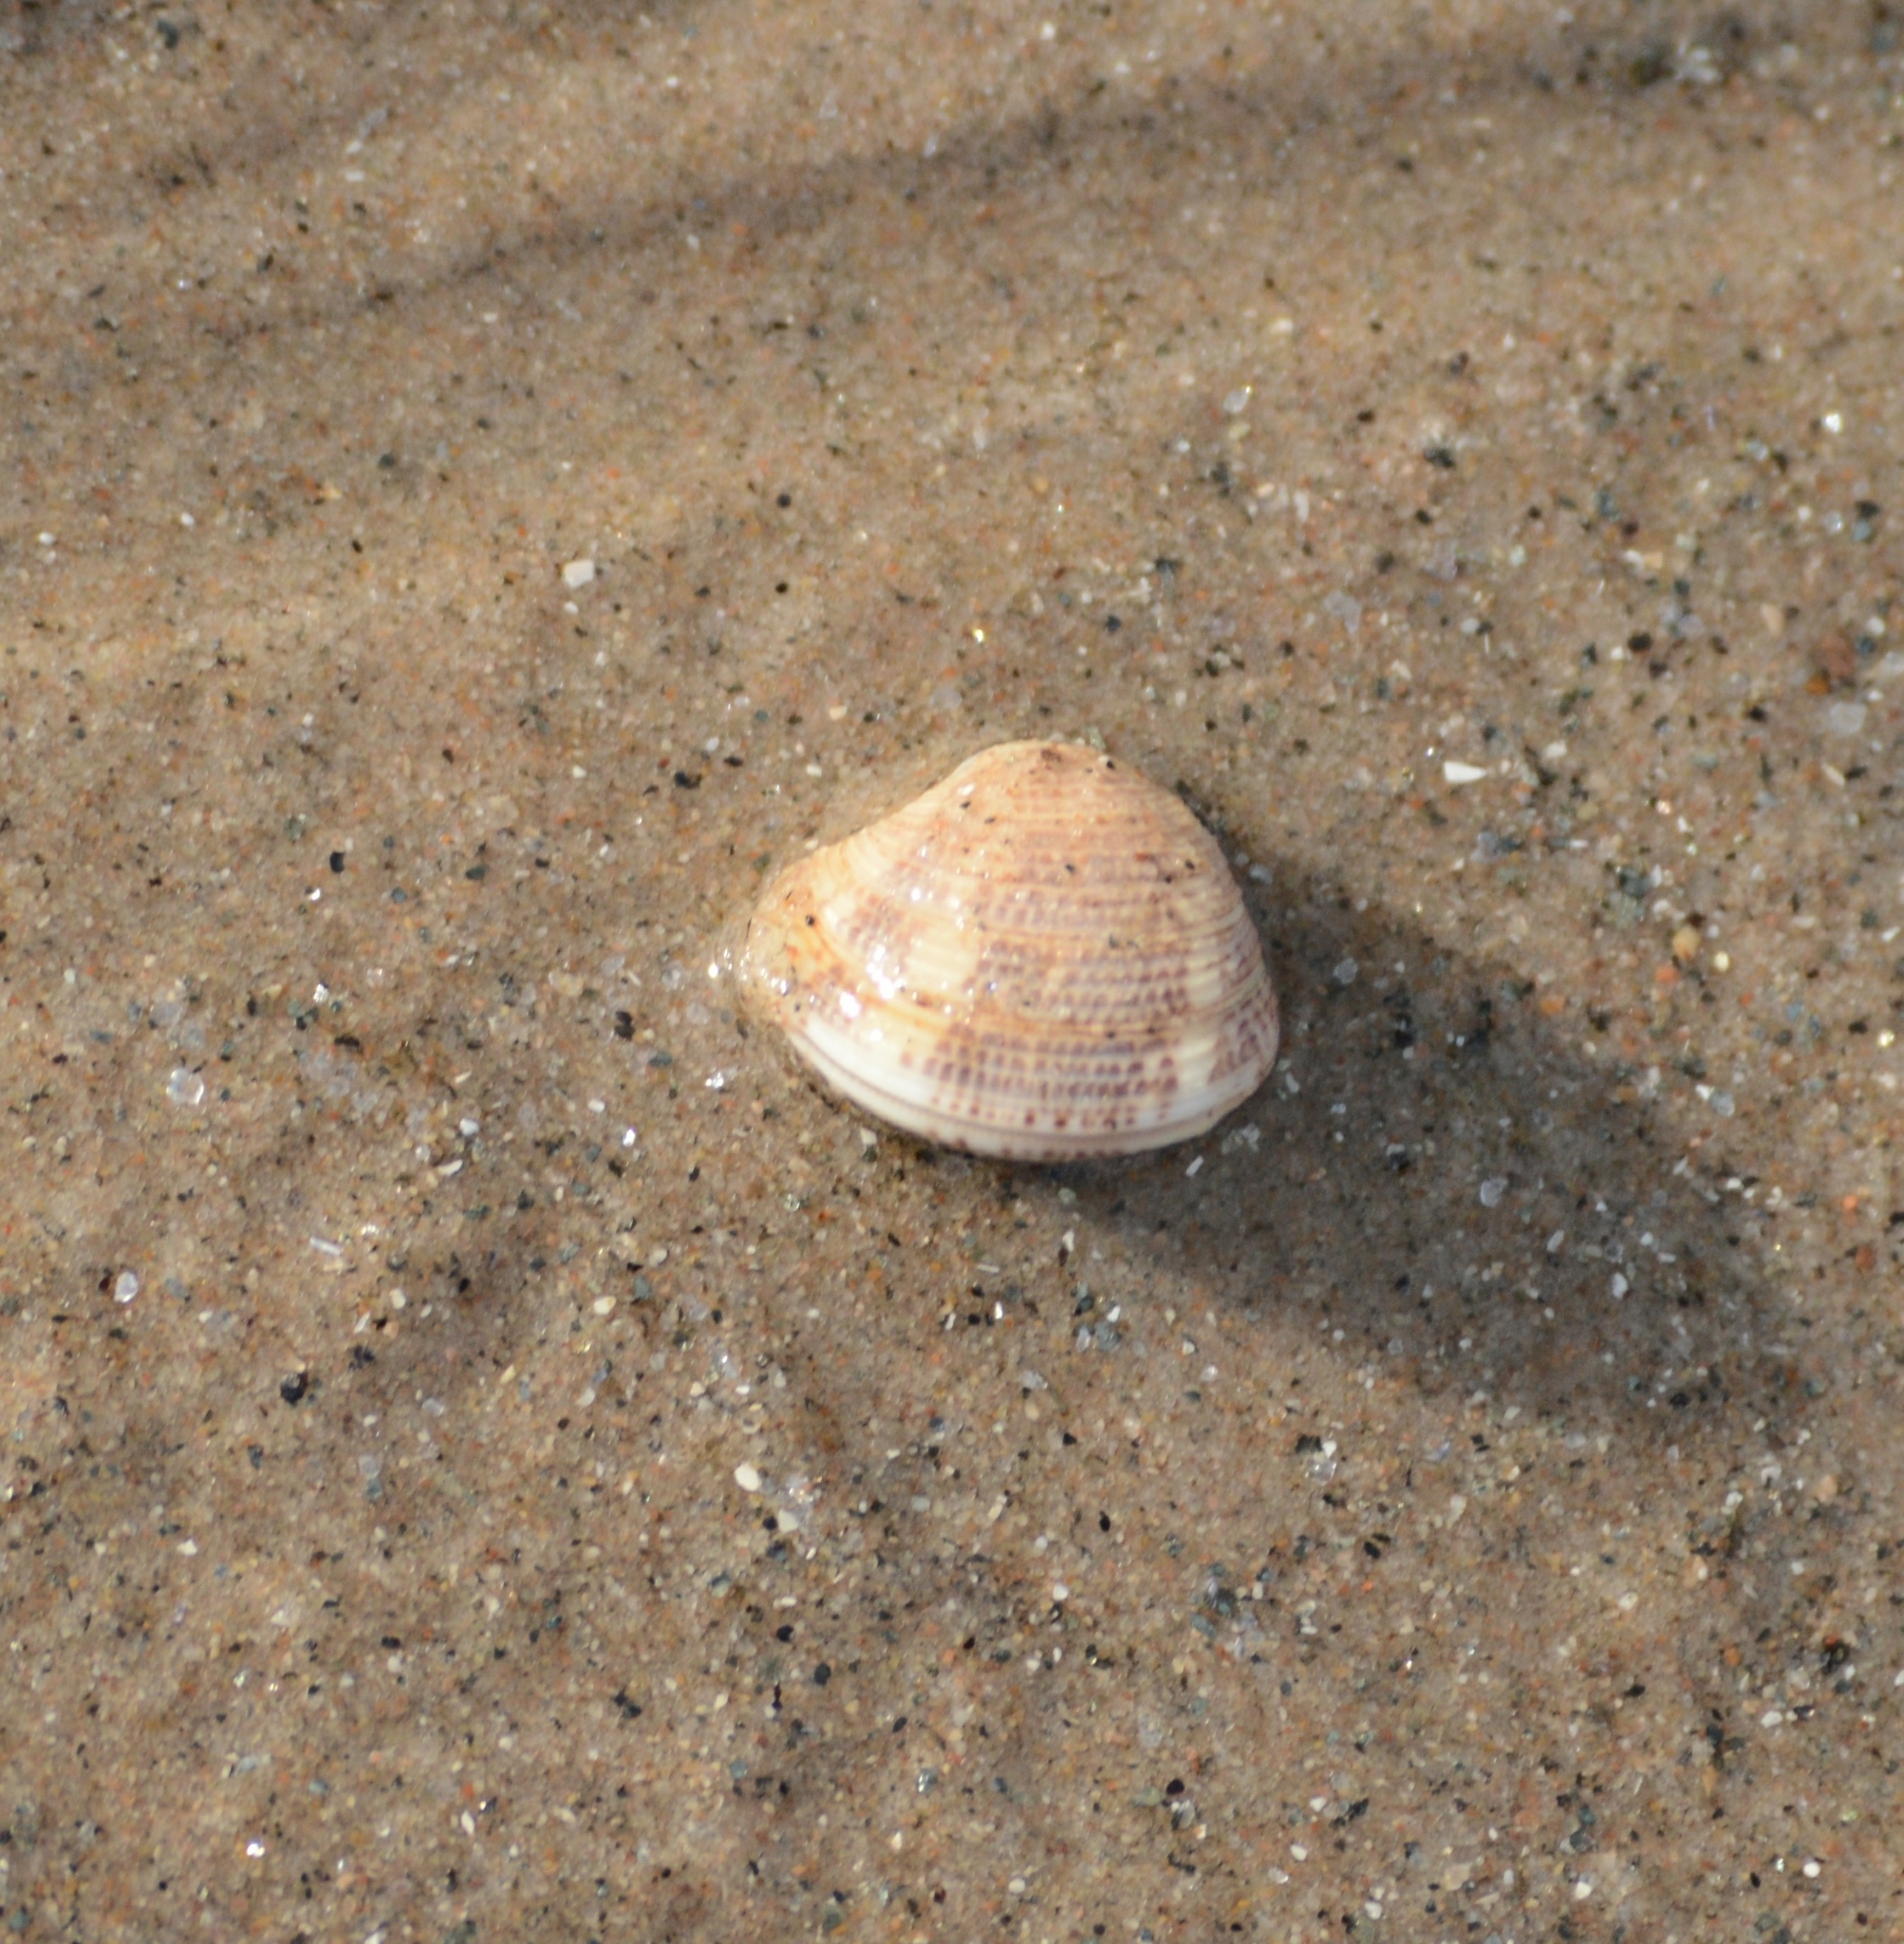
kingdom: Animalia
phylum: Mollusca
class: Bivalvia
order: Venerida
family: Veneridae
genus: Chamelea
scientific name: Chamelea striatula
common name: Striped venus
